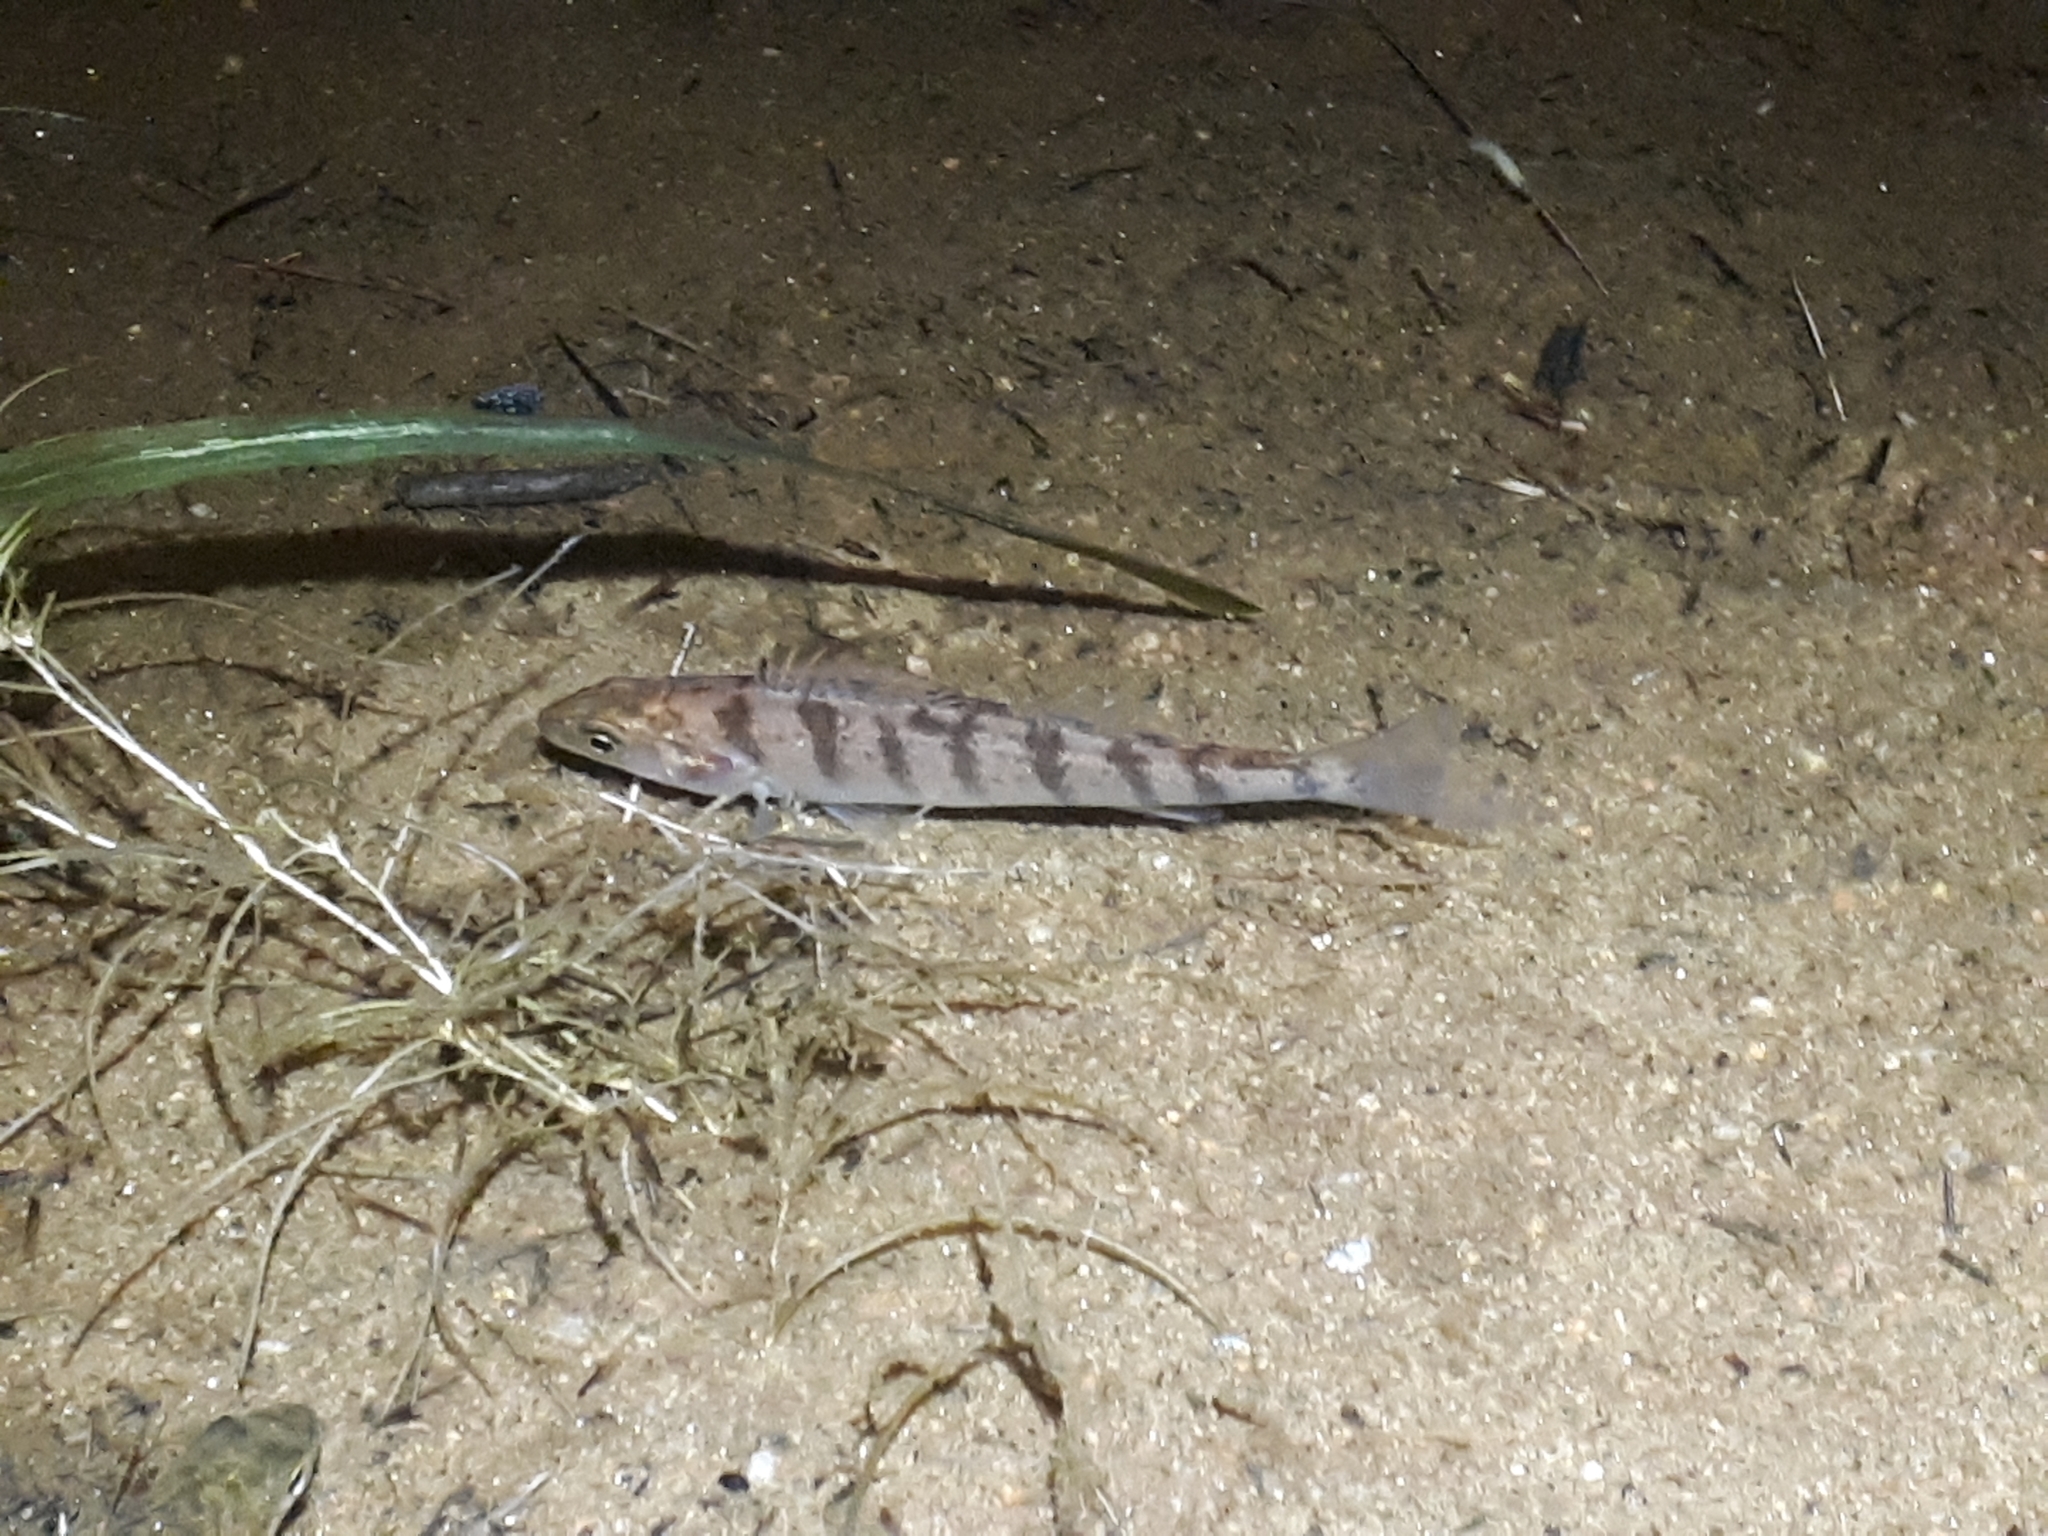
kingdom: Animalia
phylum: Chordata
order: Perciformes
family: Percidae
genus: Perca
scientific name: Perca flavescens
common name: Yellow perch
